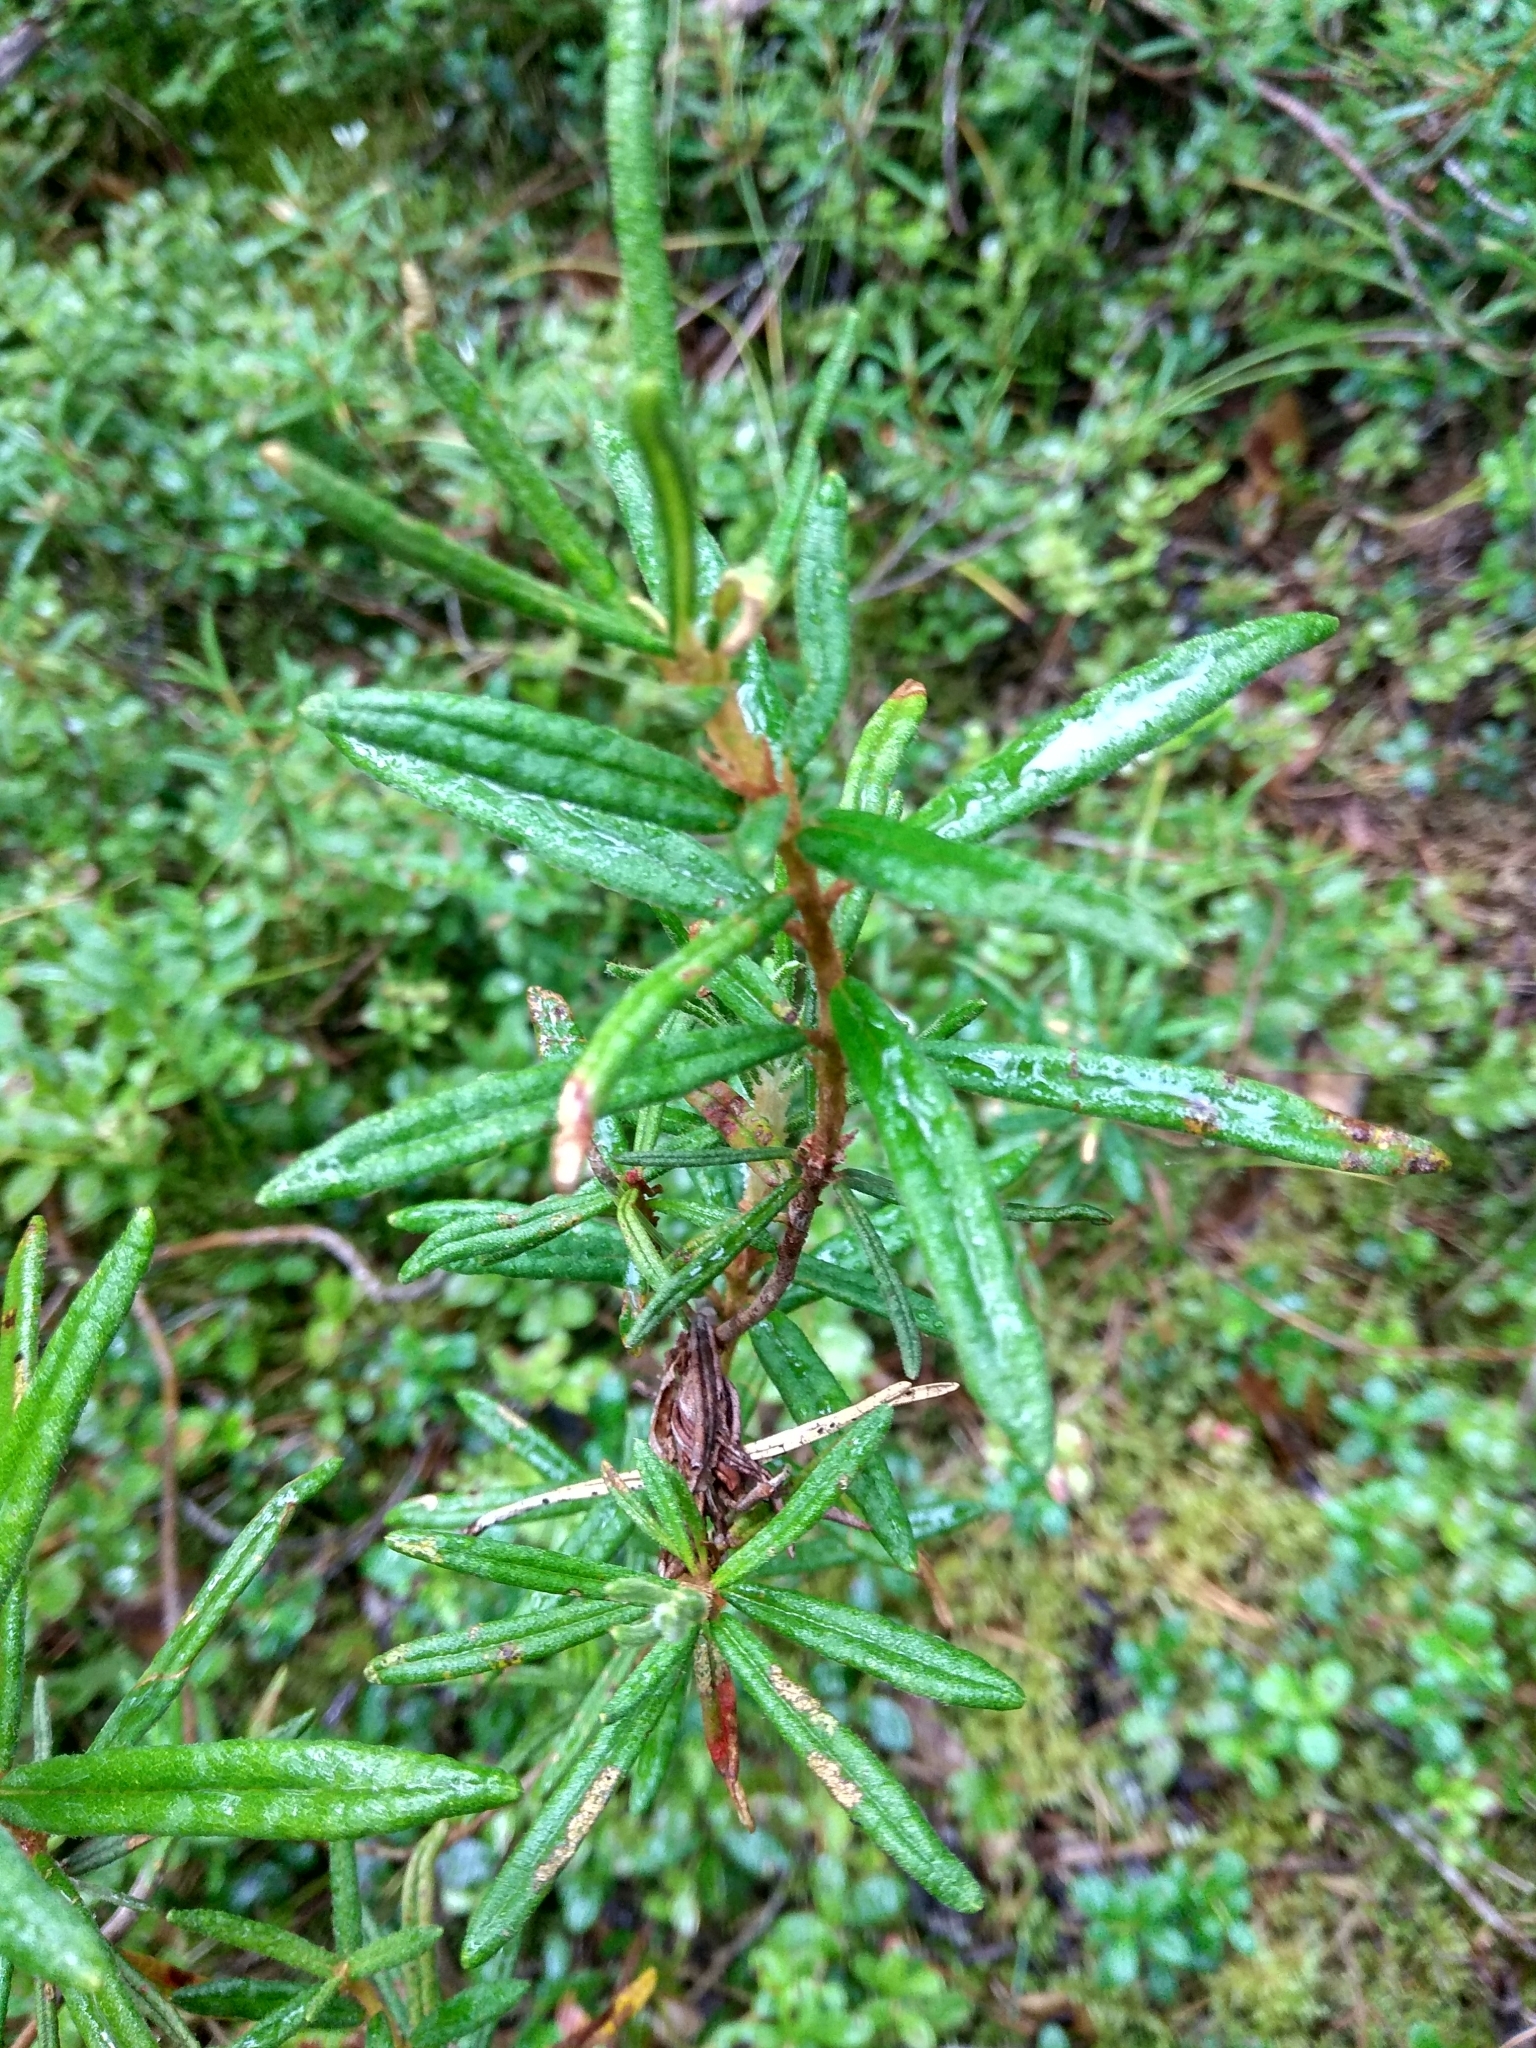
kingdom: Plantae
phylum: Tracheophyta
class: Magnoliopsida
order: Ericales
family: Ericaceae
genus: Rhododendron
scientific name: Rhododendron tomentosum
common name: Marsh labrador tea
